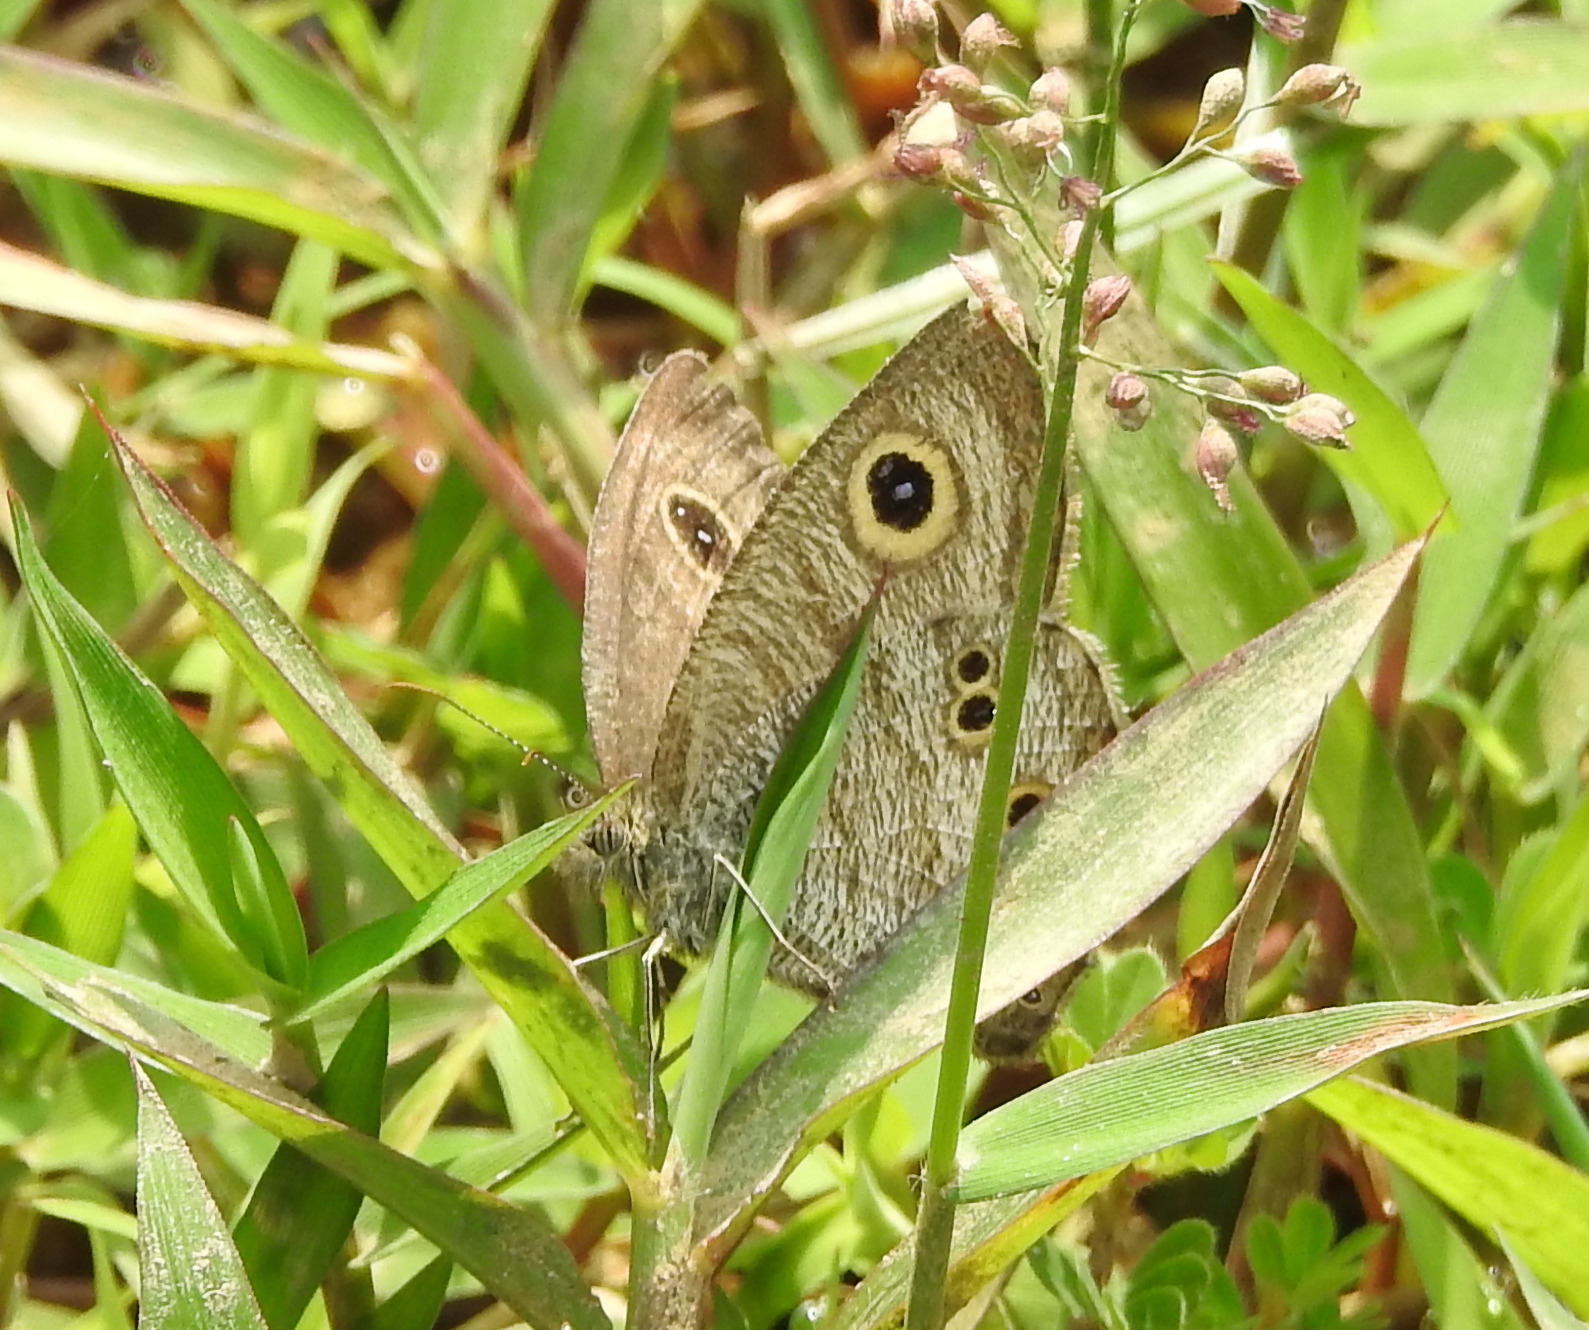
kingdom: Animalia
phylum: Arthropoda
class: Insecta
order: Lepidoptera
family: Nymphalidae
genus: Ypthima
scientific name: Ypthima baldus
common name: Common five-ring
